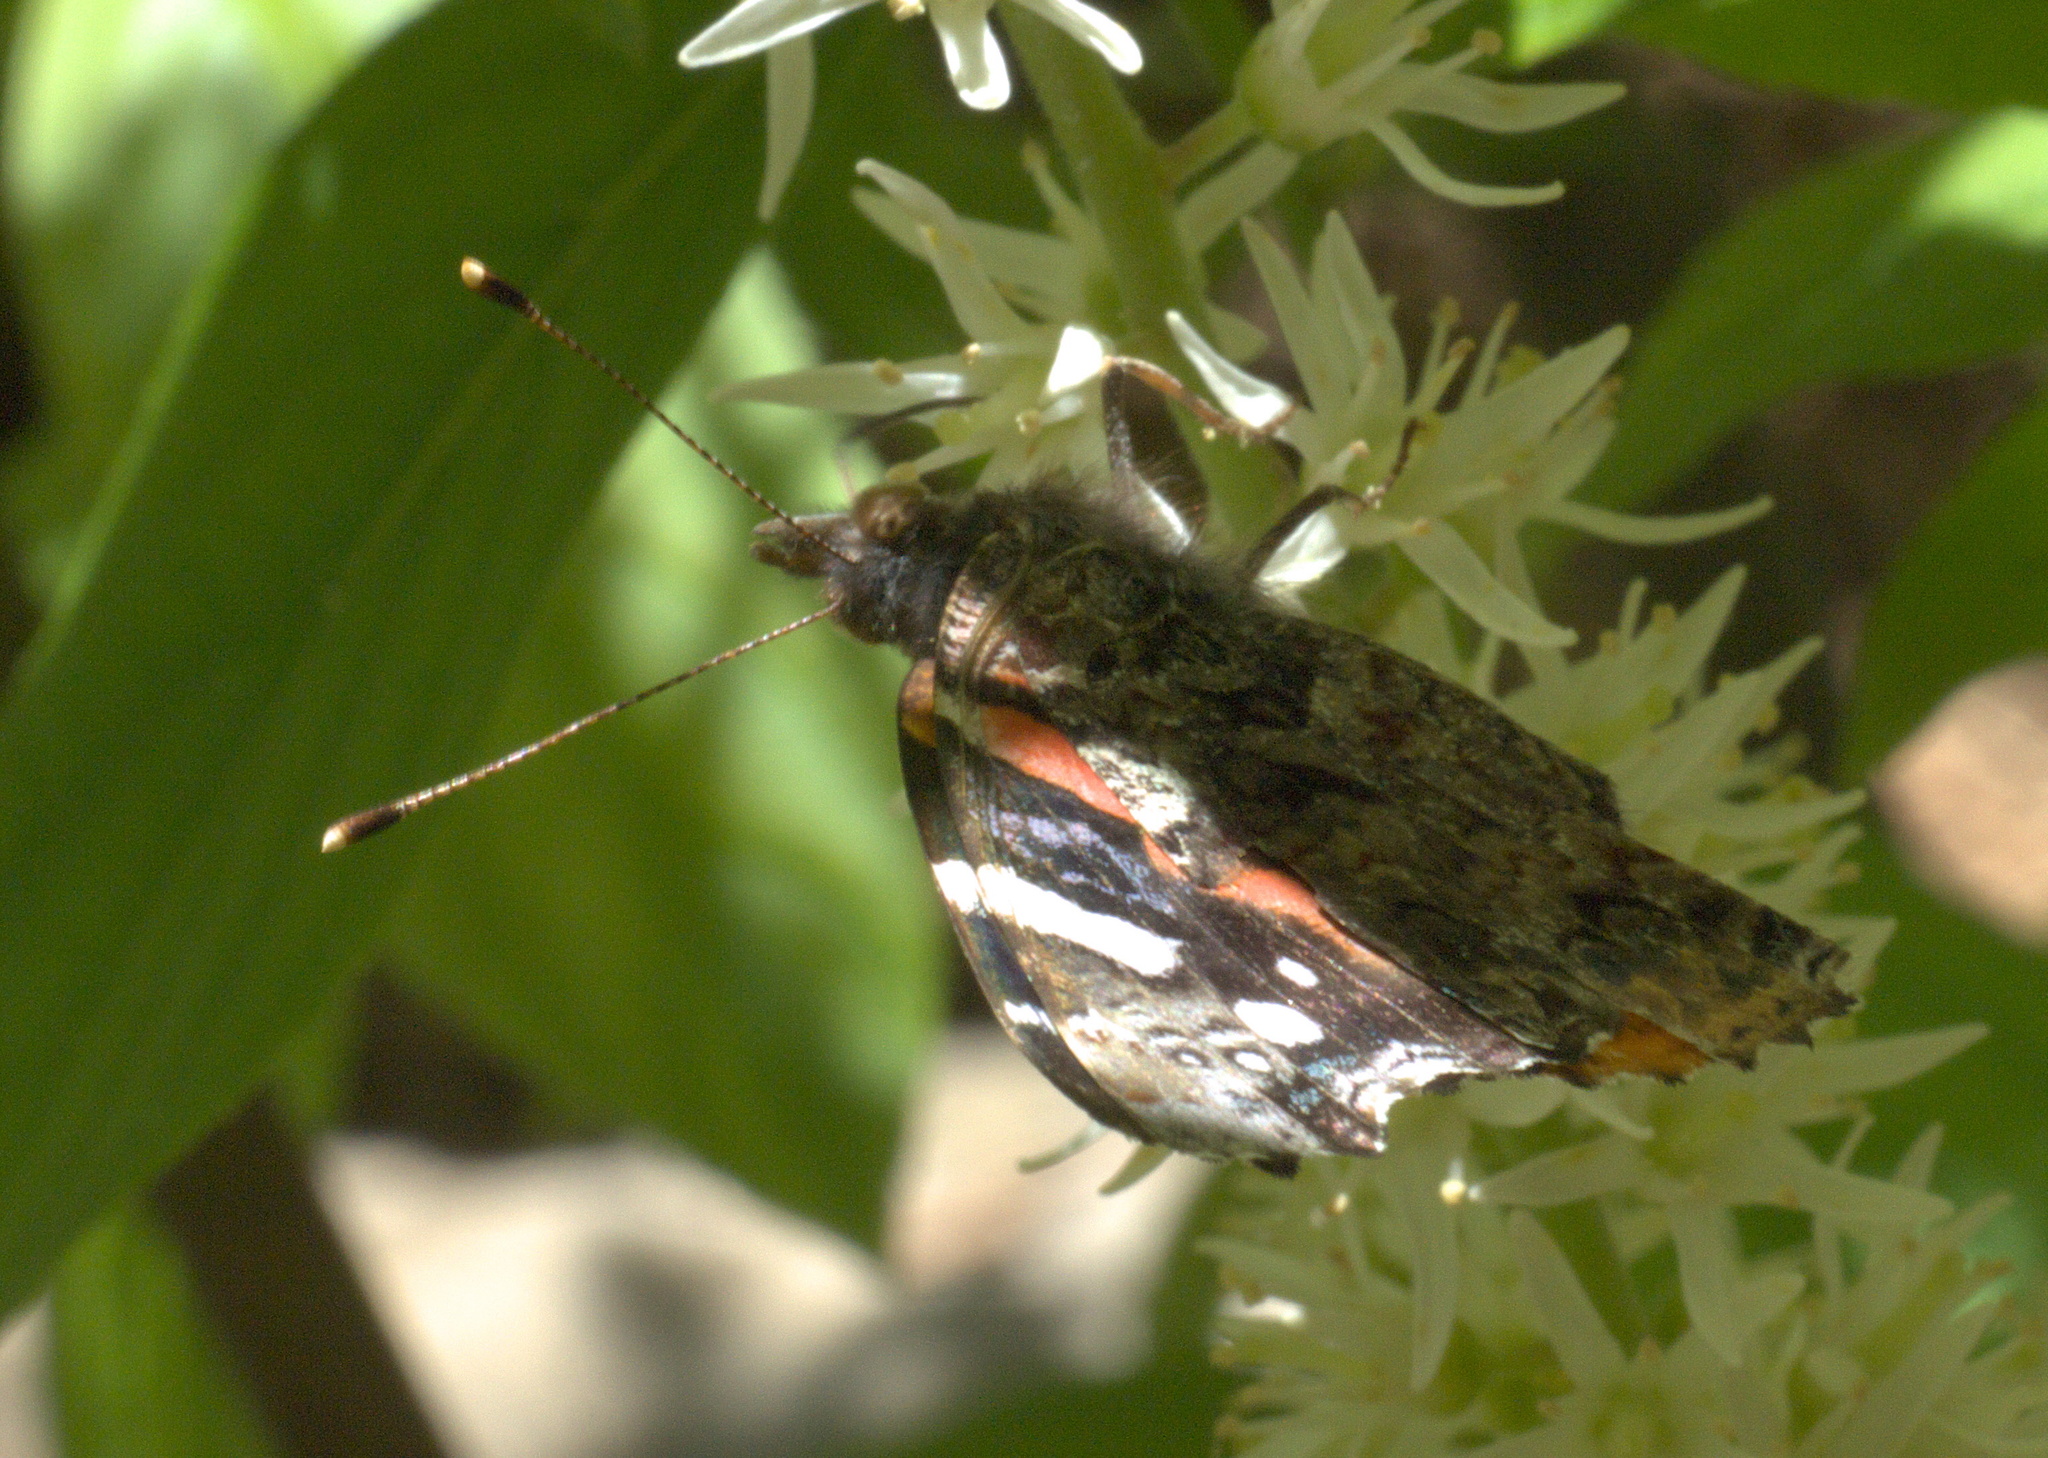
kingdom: Animalia
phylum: Arthropoda
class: Insecta
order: Lepidoptera
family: Nymphalidae
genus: Vanessa
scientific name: Vanessa atalanta
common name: Red admiral
